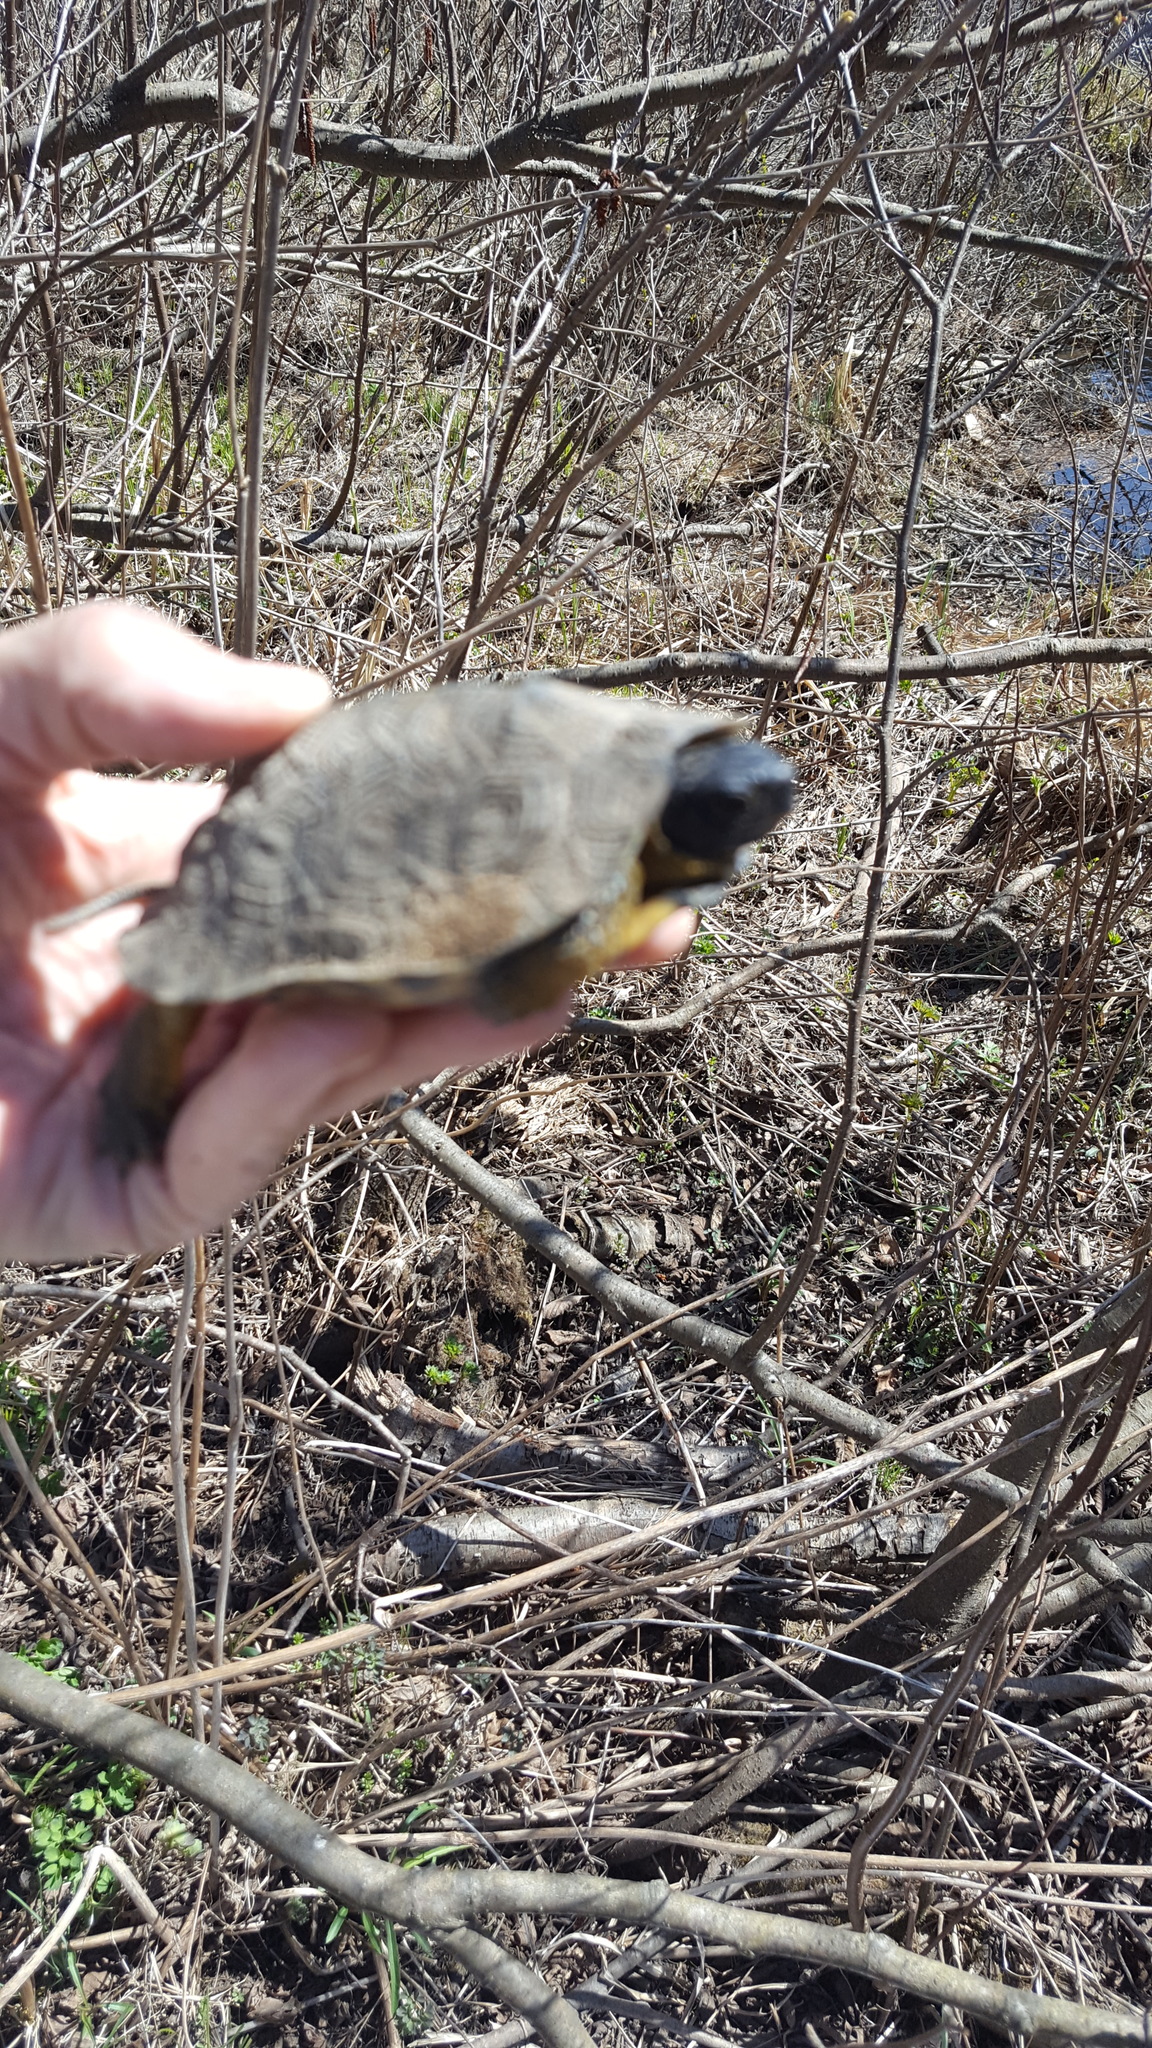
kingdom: Animalia
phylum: Chordata
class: Testudines
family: Emydidae
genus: Glyptemys
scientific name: Glyptemys insculpta
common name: Wood turtle
